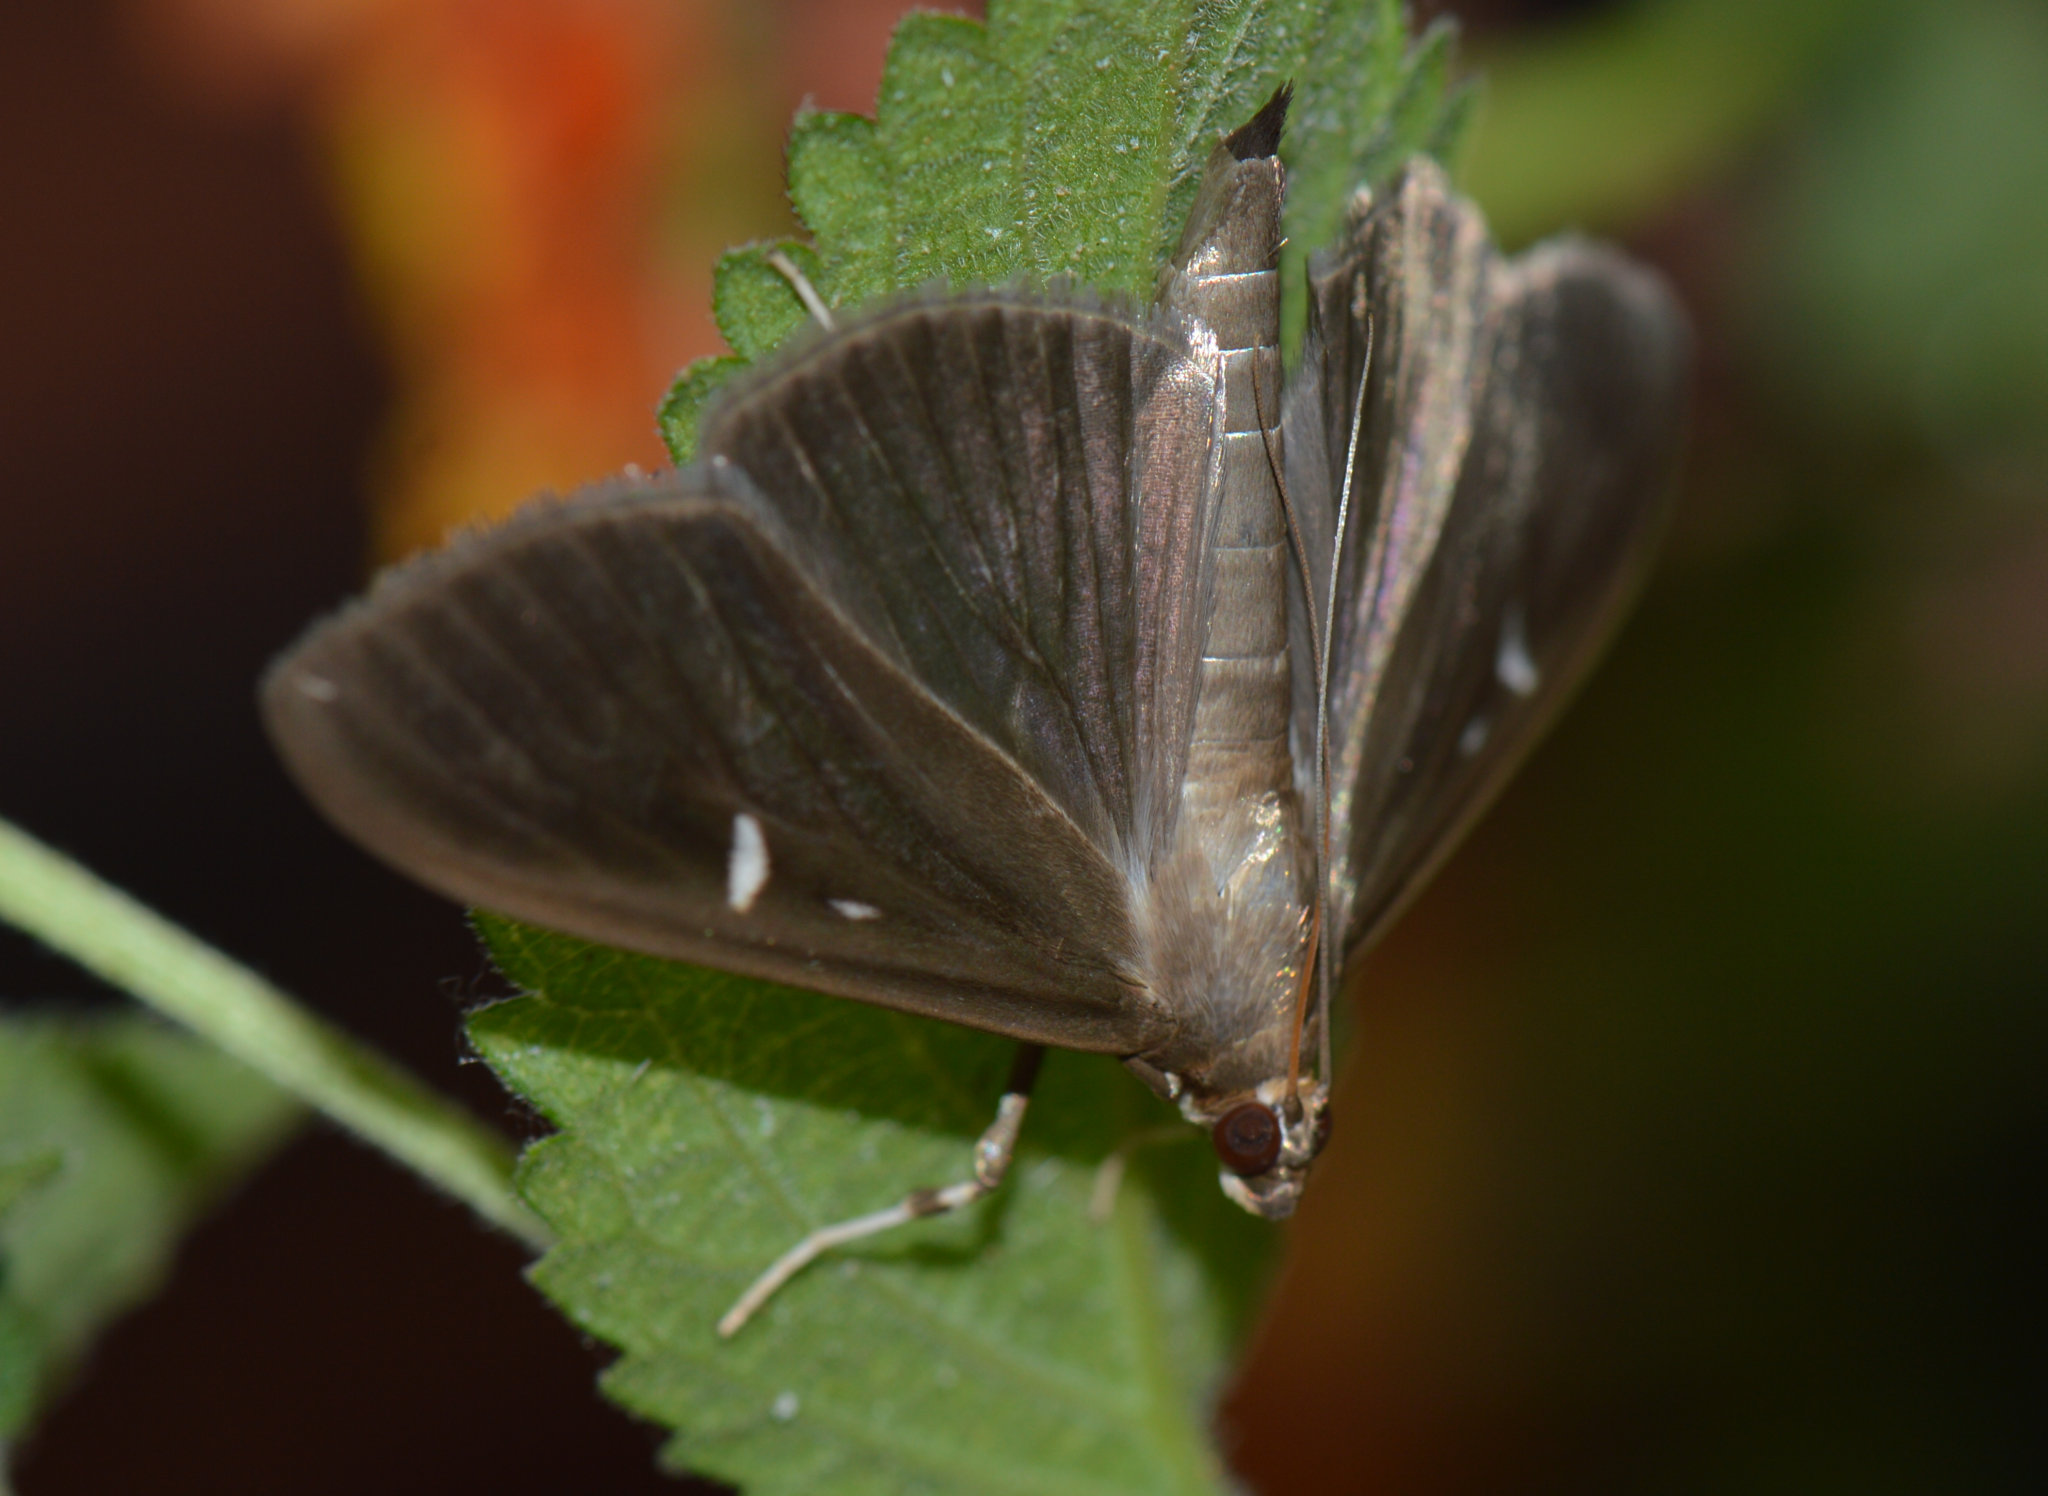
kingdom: Animalia
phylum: Arthropoda
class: Insecta
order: Lepidoptera
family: Crambidae
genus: Cydalima
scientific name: Cydalima perspectalis
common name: Box tree moth
